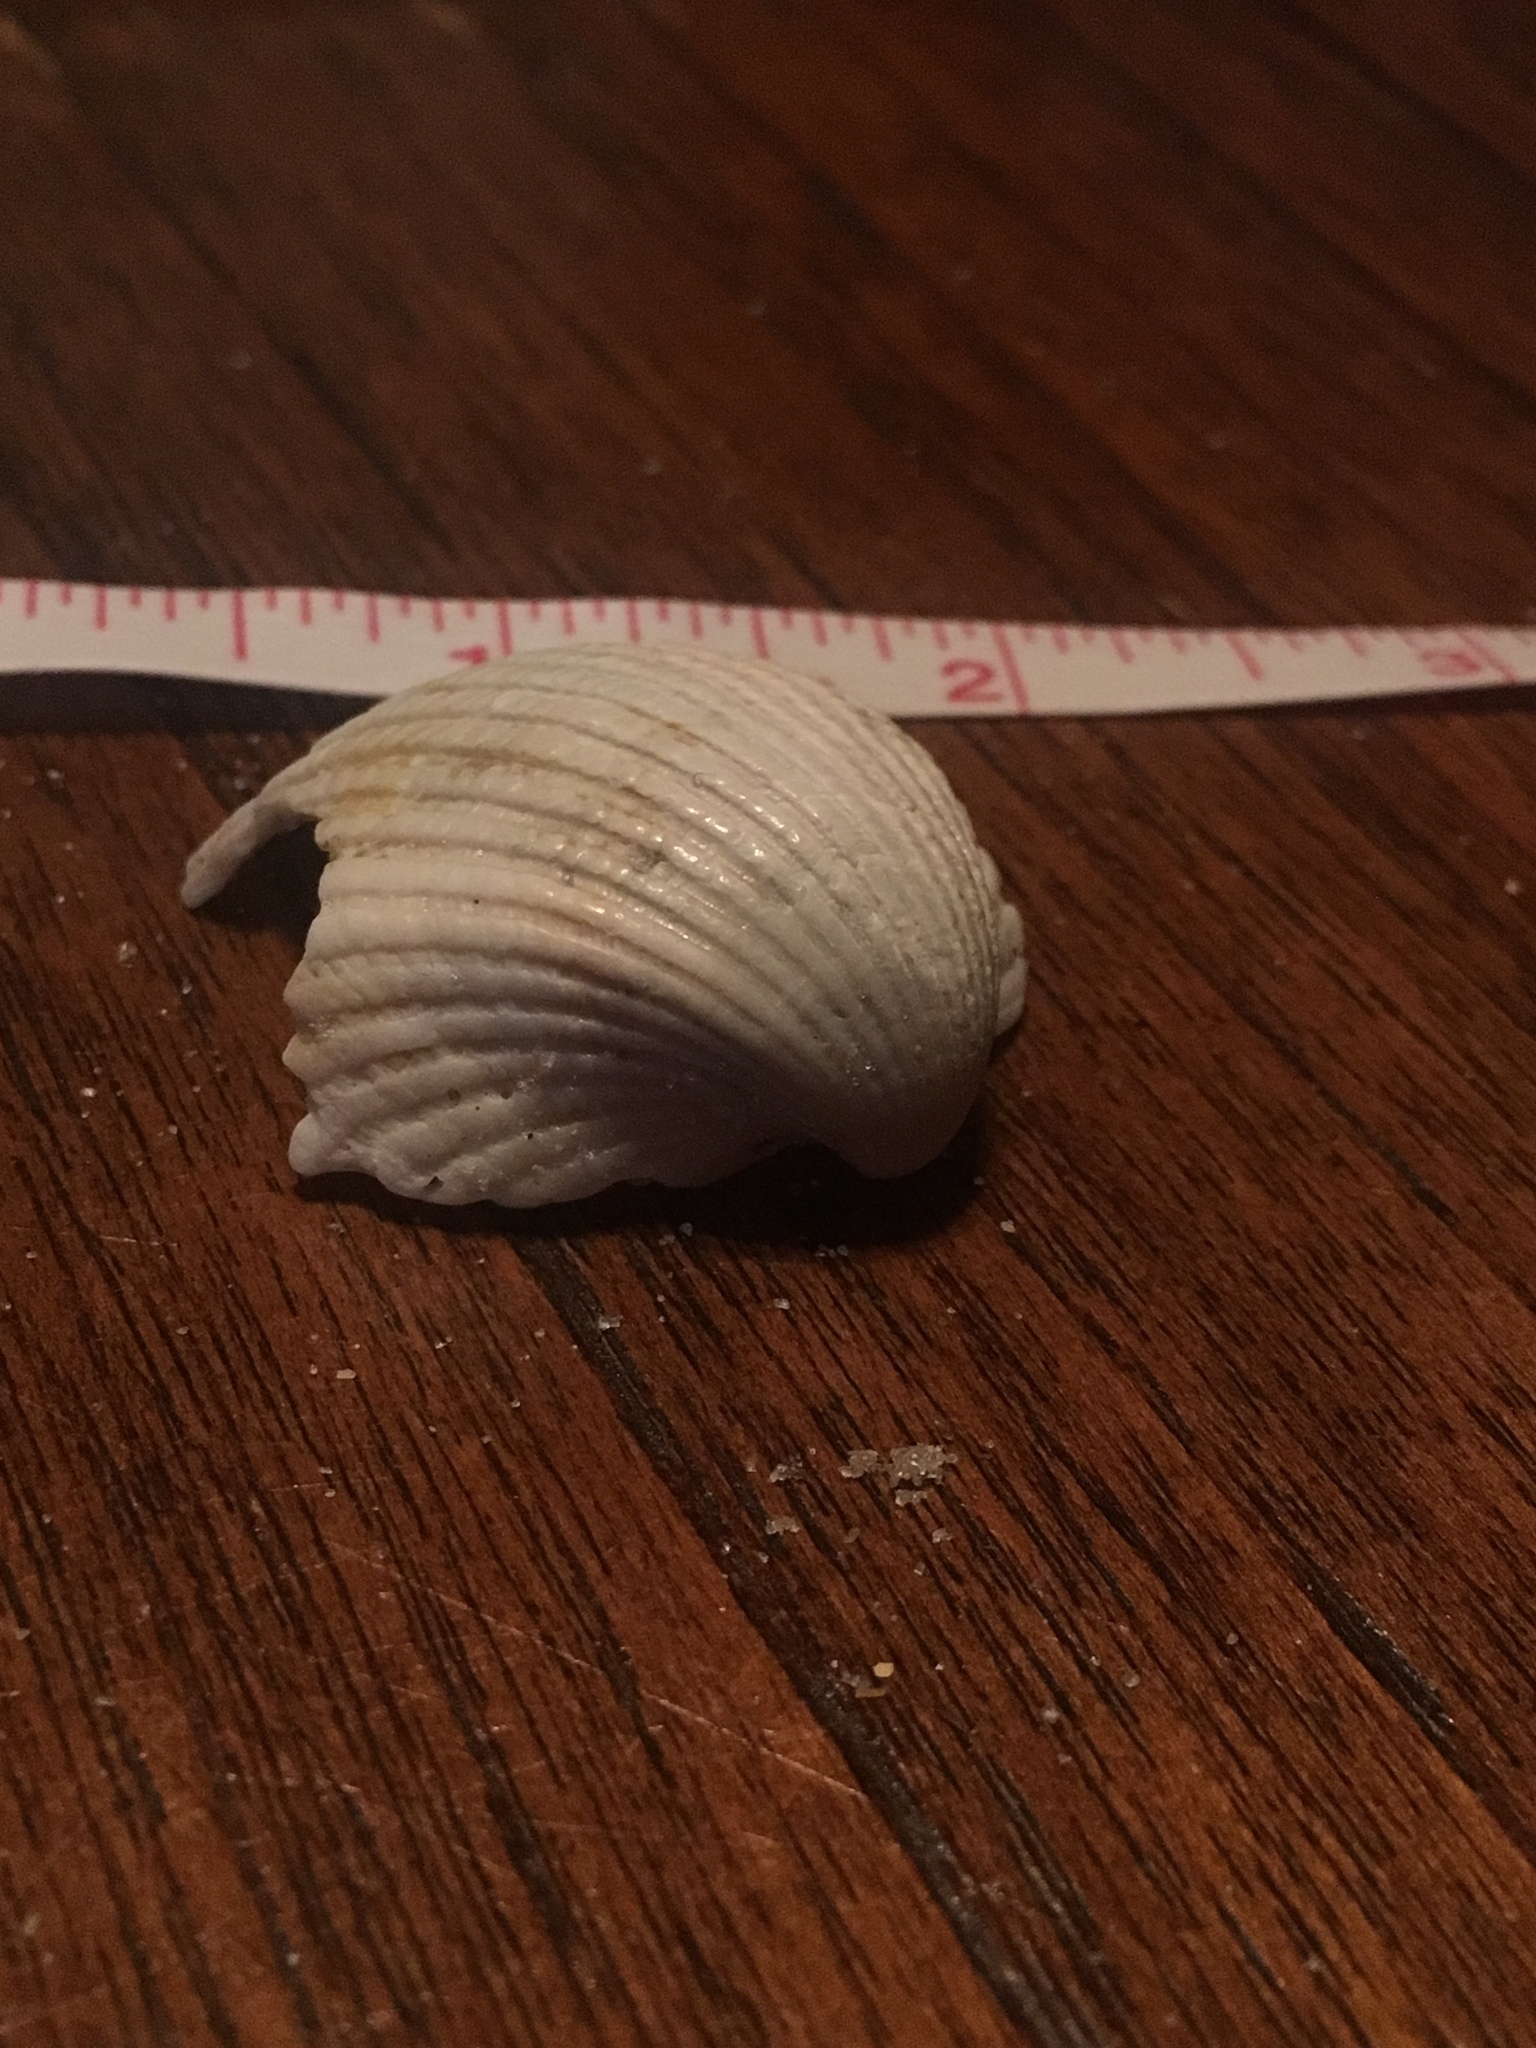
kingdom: Animalia
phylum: Mollusca
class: Bivalvia
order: Arcida
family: Arcidae
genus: Anadara
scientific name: Anadara brasiliana
